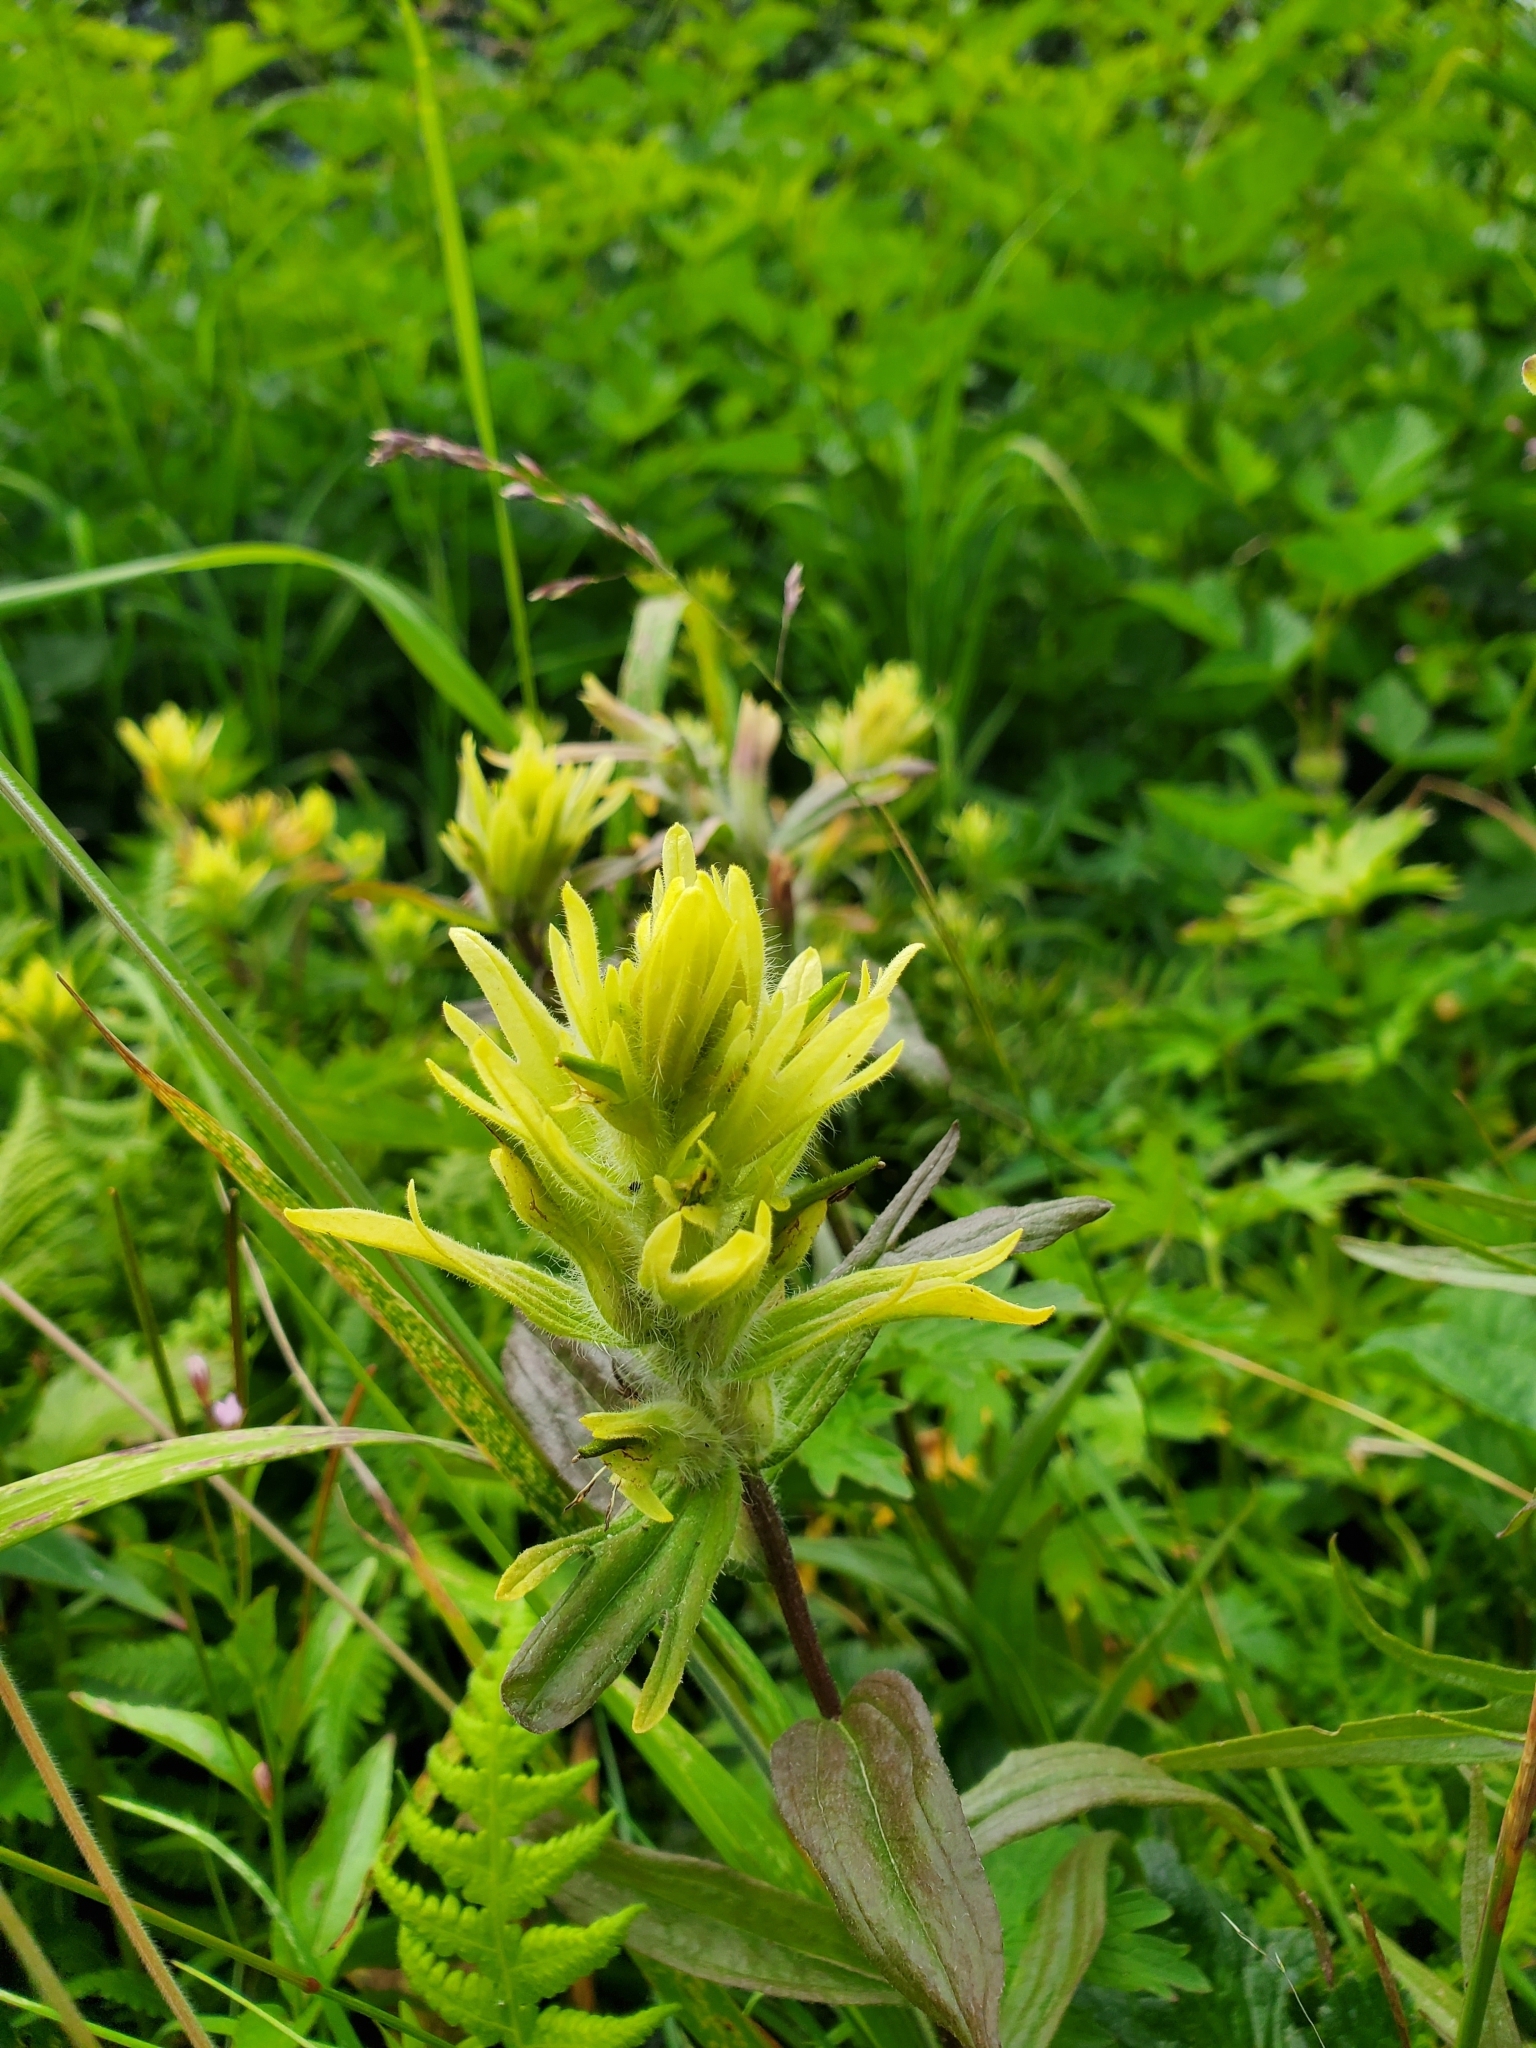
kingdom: Plantae
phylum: Tracheophyta
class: Magnoliopsida
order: Lamiales
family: Orobanchaceae
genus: Castilleja
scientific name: Castilleja unalaschcensis
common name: Unalaska paintbrush
